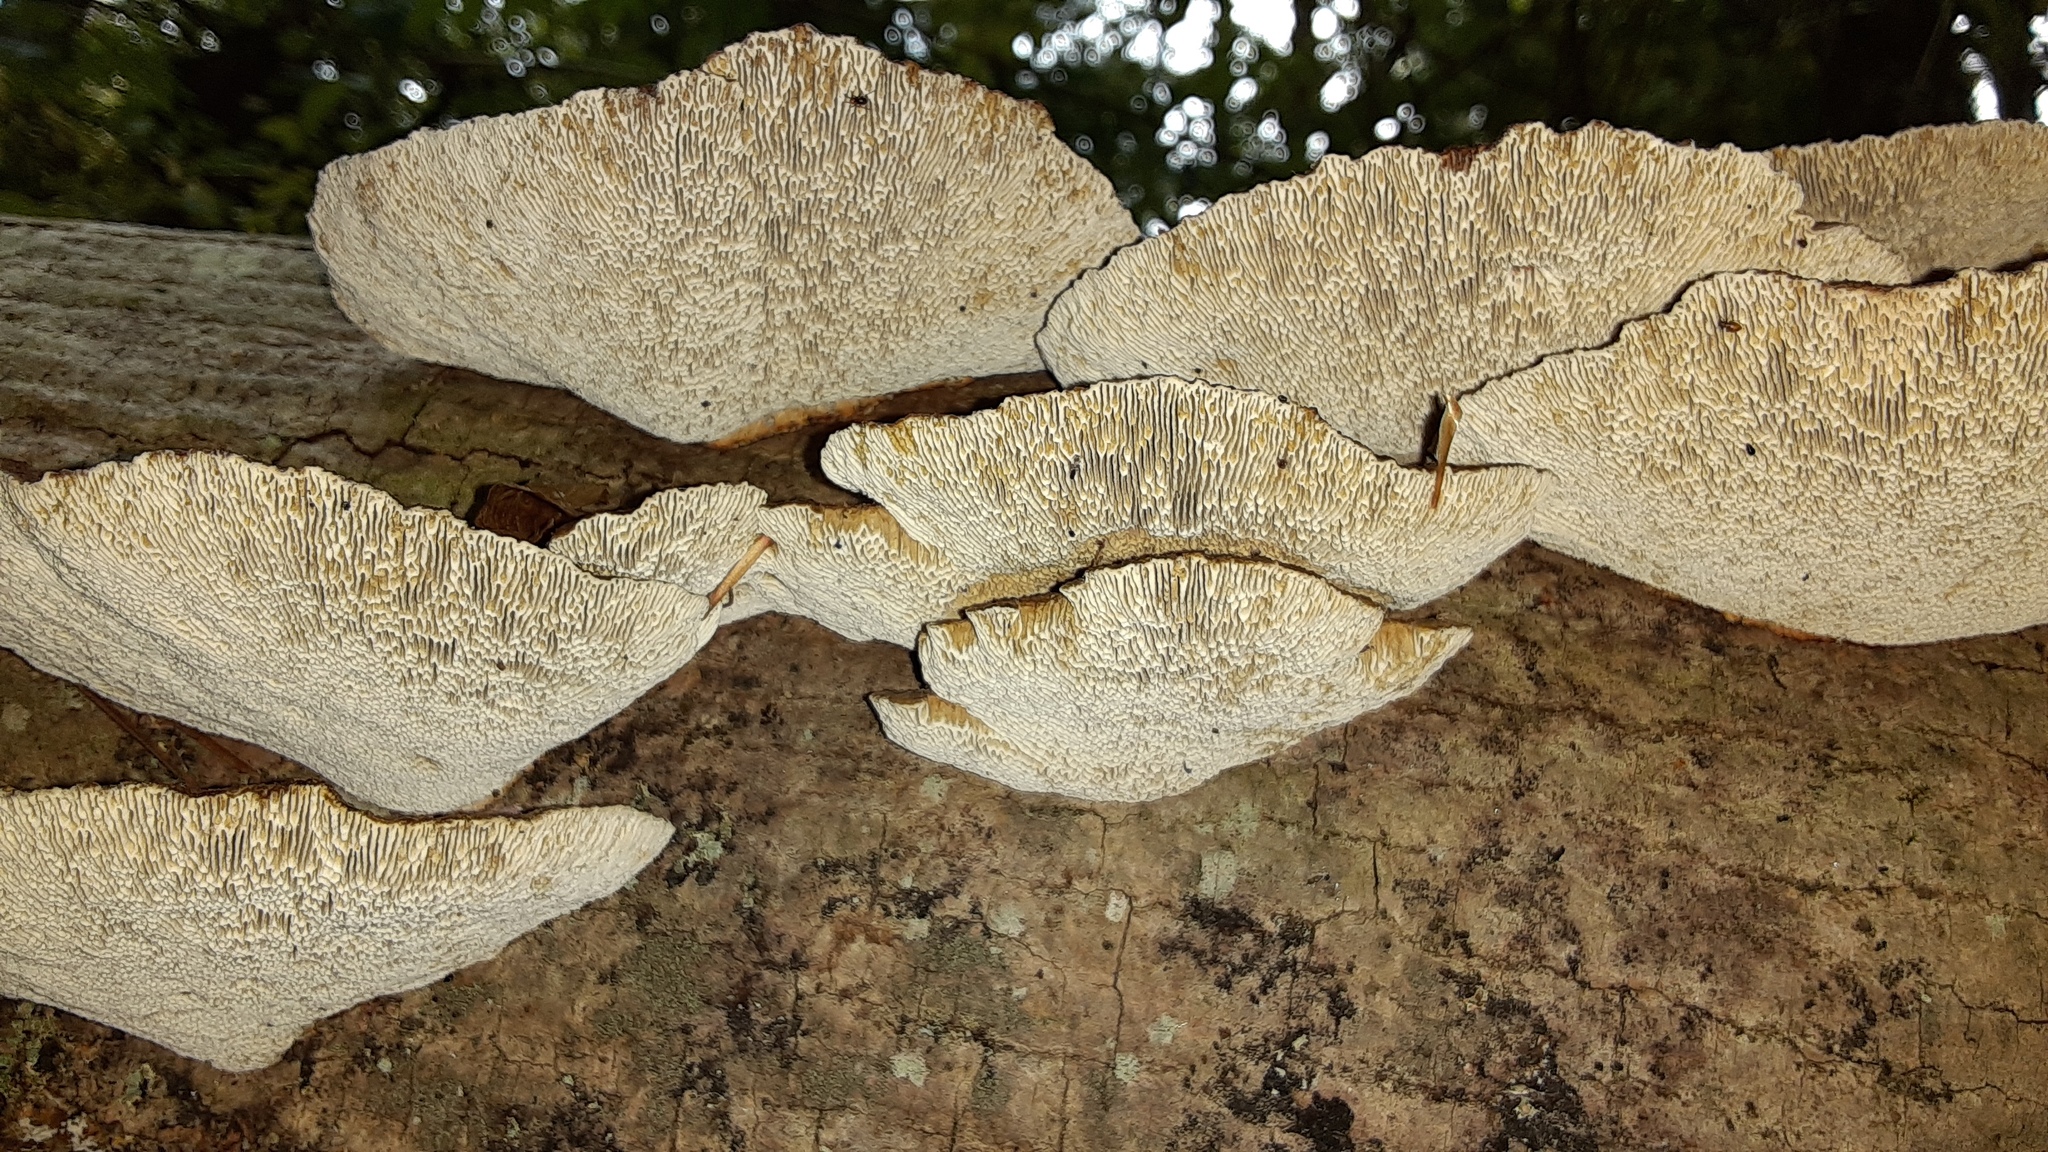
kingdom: Fungi
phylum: Basidiomycota
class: Agaricomycetes
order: Polyporales
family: Polyporaceae
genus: Daedaleopsis
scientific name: Daedaleopsis confragosa
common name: Blushing bracket
